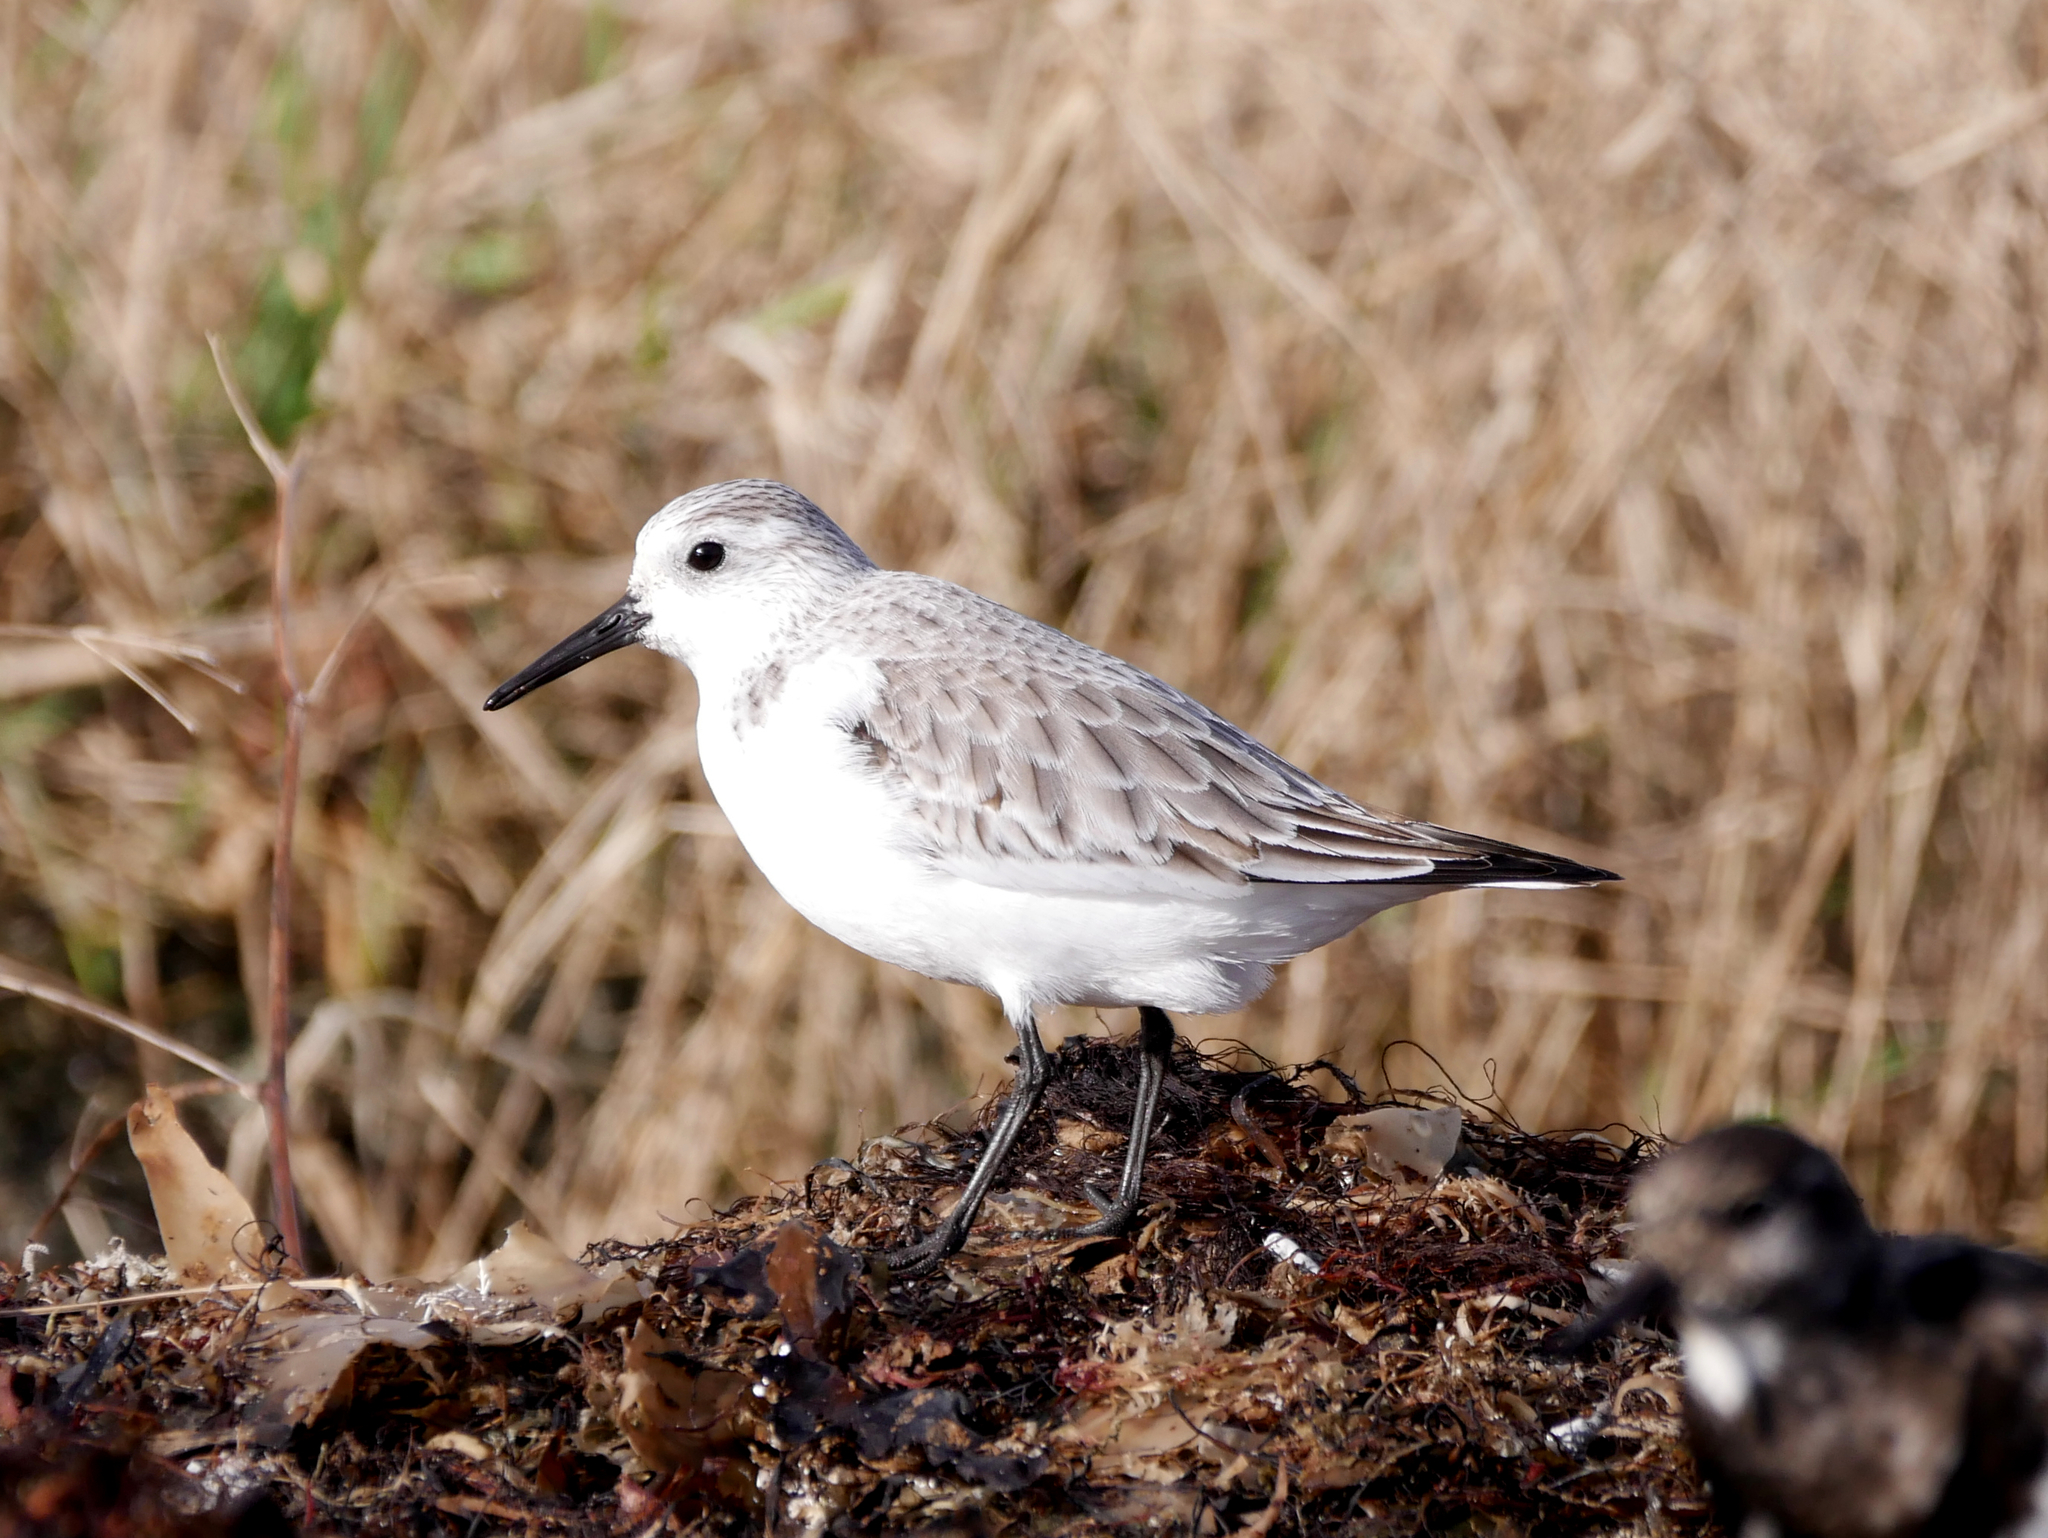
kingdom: Animalia
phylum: Chordata
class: Aves
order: Charadriiformes
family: Scolopacidae
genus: Calidris
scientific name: Calidris alba
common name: Sanderling
